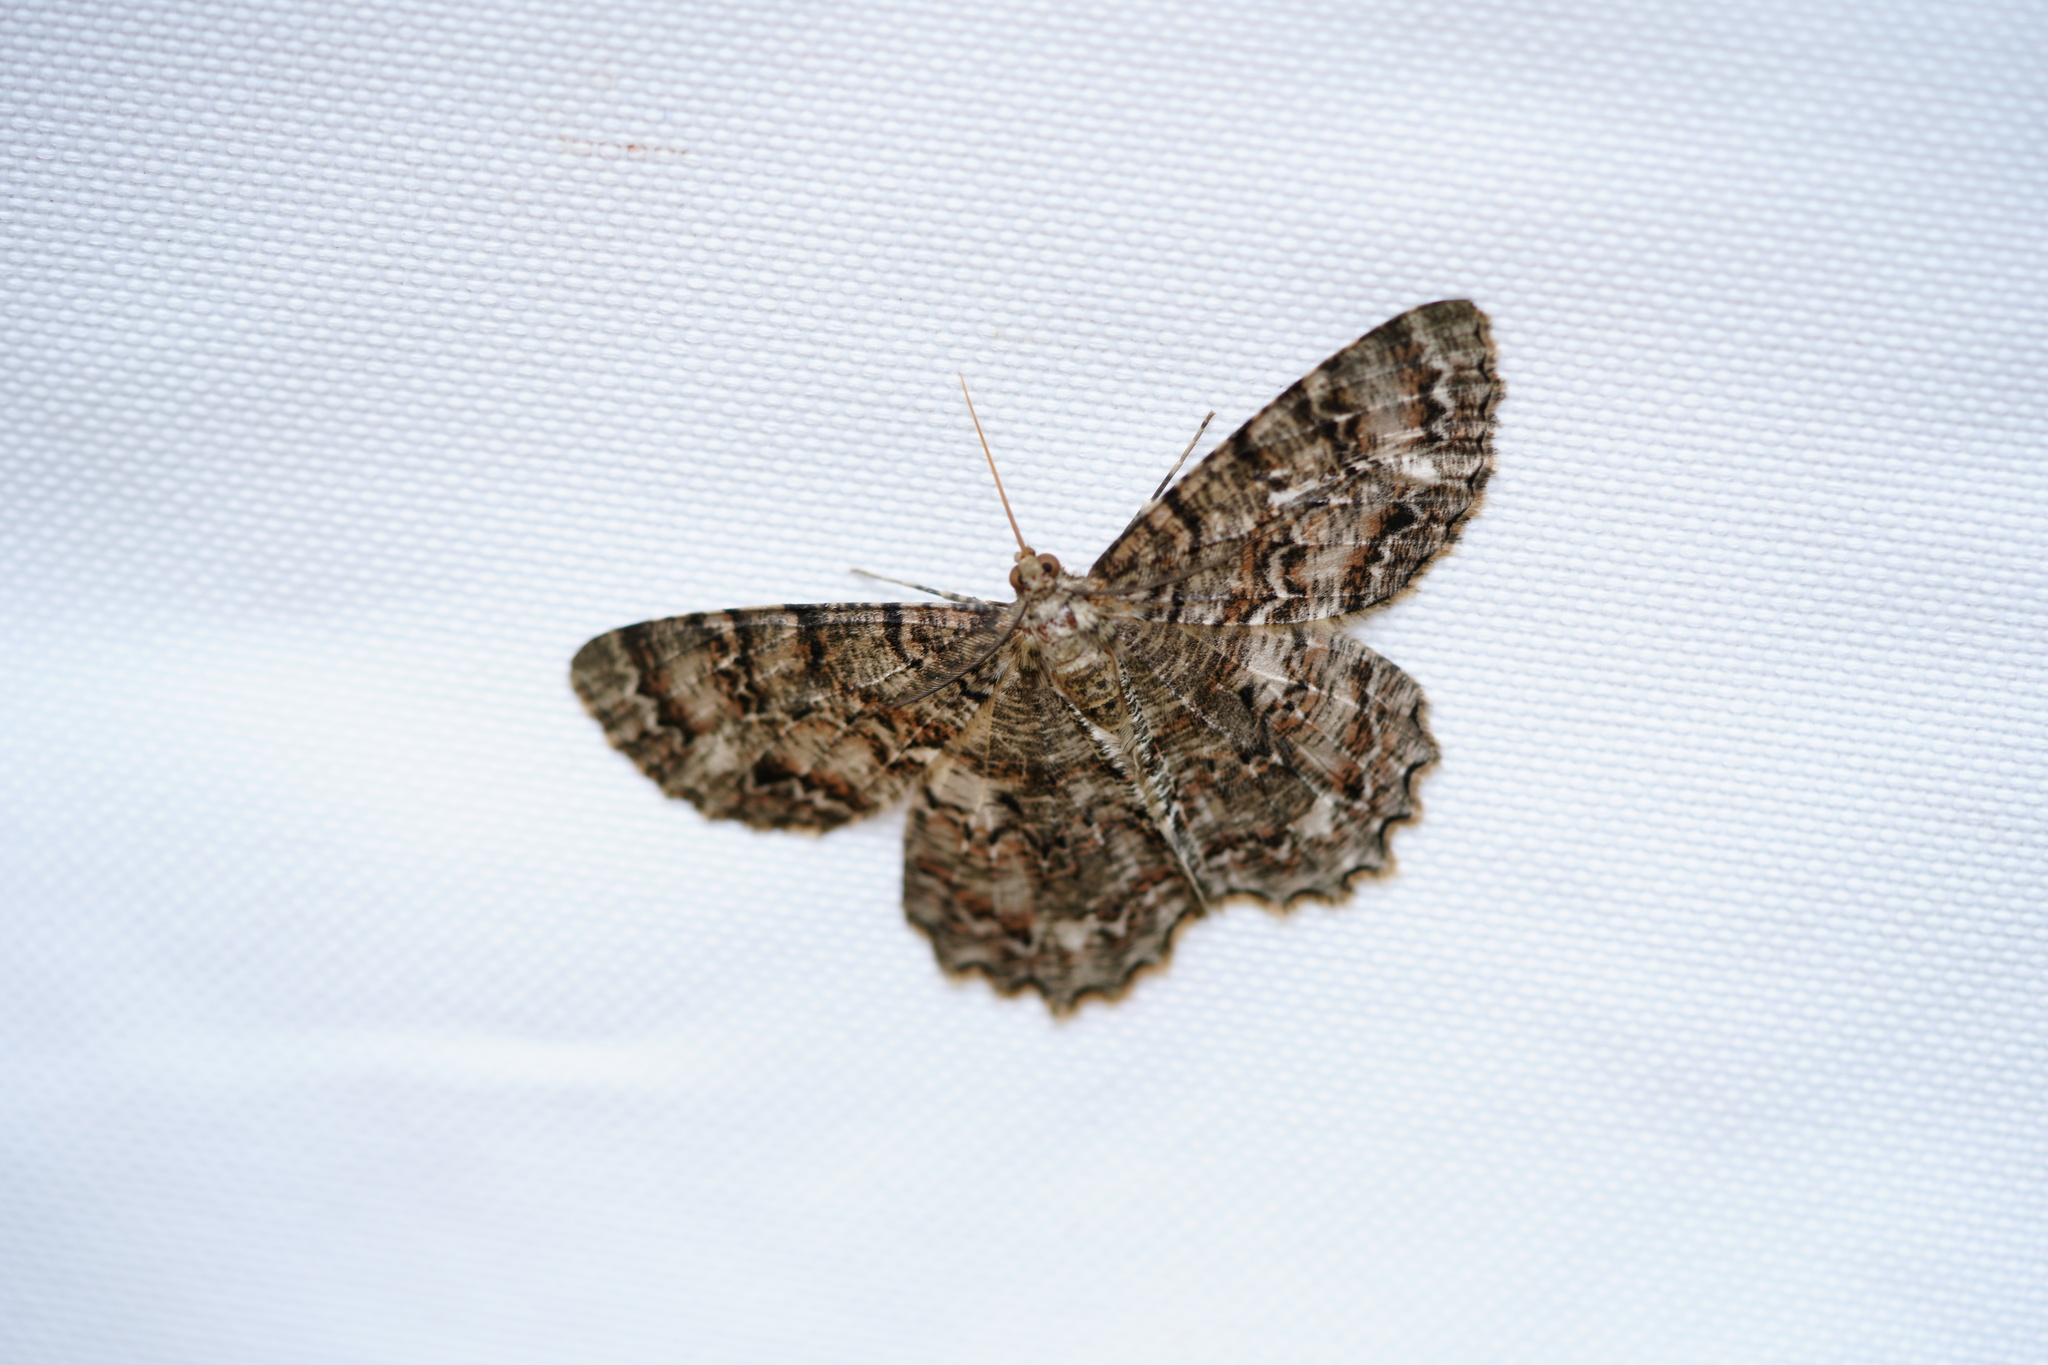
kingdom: Animalia
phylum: Arthropoda
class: Insecta
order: Lepidoptera
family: Geometridae
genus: Epimecis
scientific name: Epimecis hortaria
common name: Tulip-tree beauty
